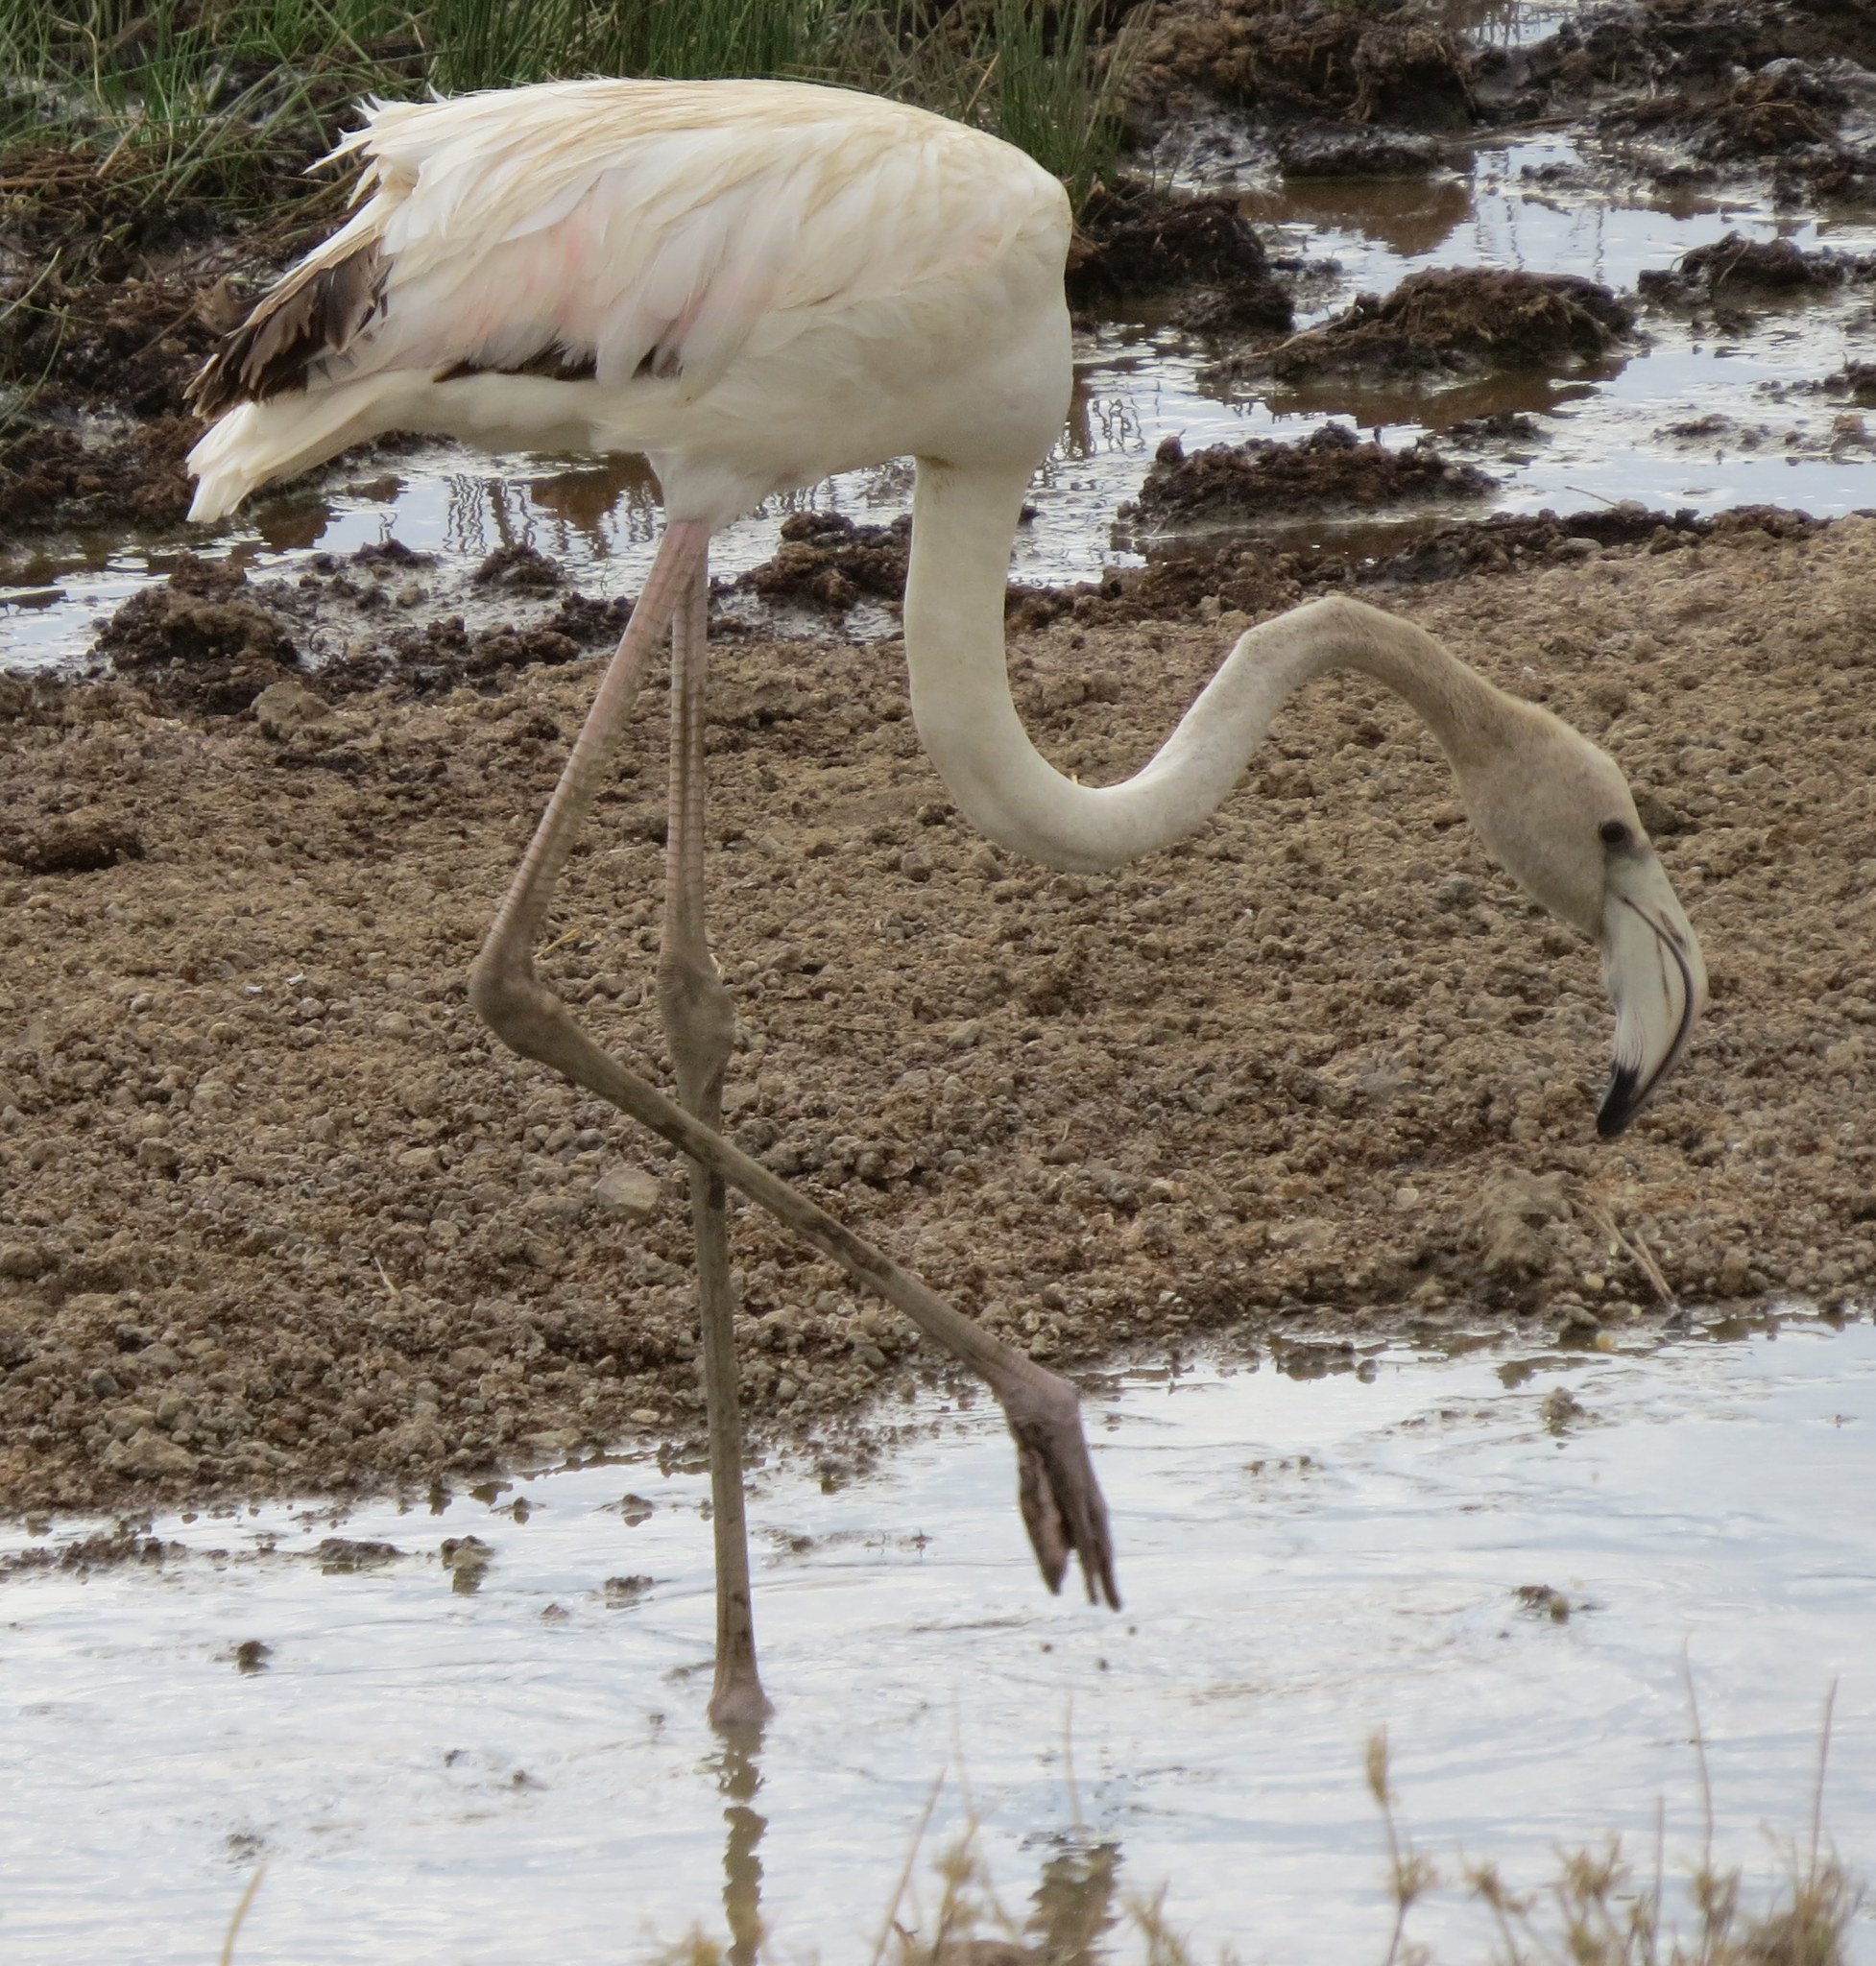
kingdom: Animalia
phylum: Chordata
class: Aves
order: Phoenicopteriformes
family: Phoenicopteridae
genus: Phoenicopterus
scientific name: Phoenicopterus roseus
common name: Greater flamingo
